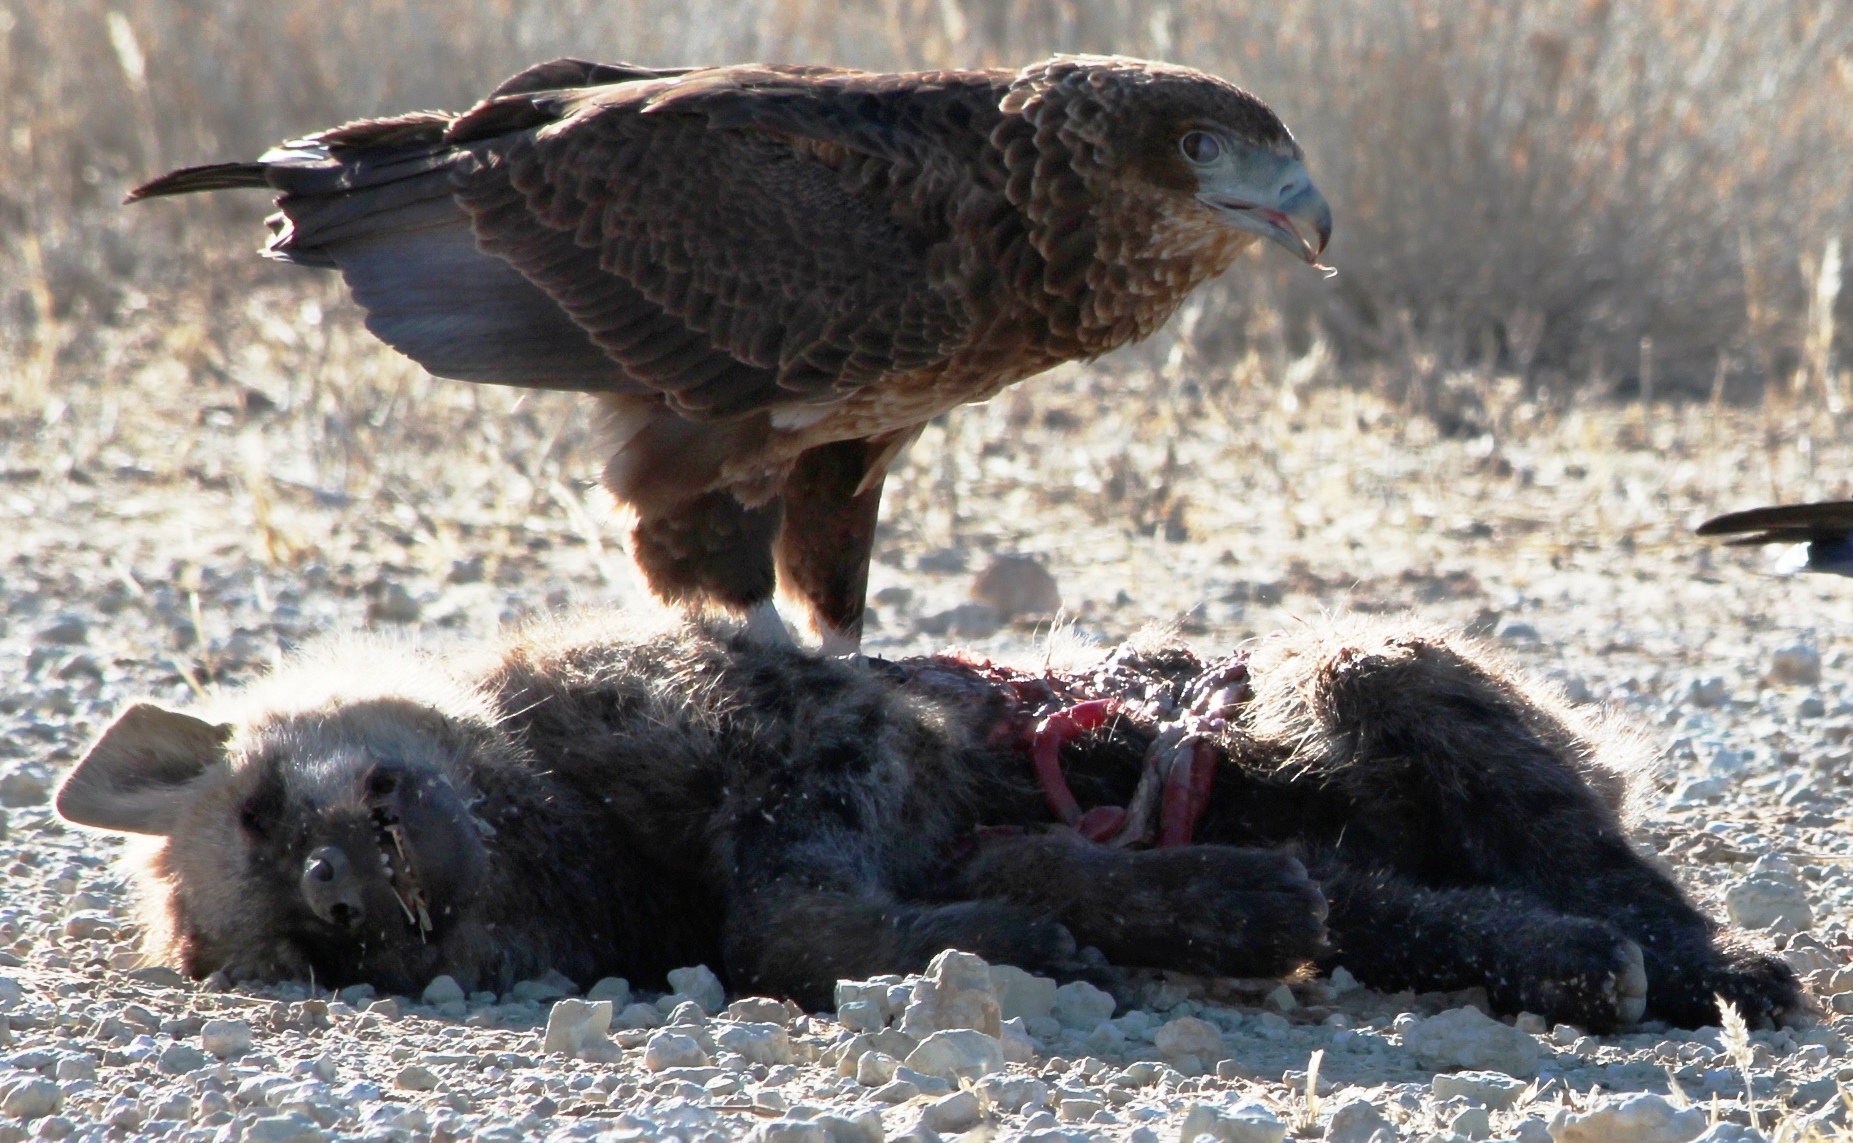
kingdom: Animalia
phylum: Chordata
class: Mammalia
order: Carnivora
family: Hyaenidae
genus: Crocuta
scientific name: Crocuta crocuta
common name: Spotted hyaena
